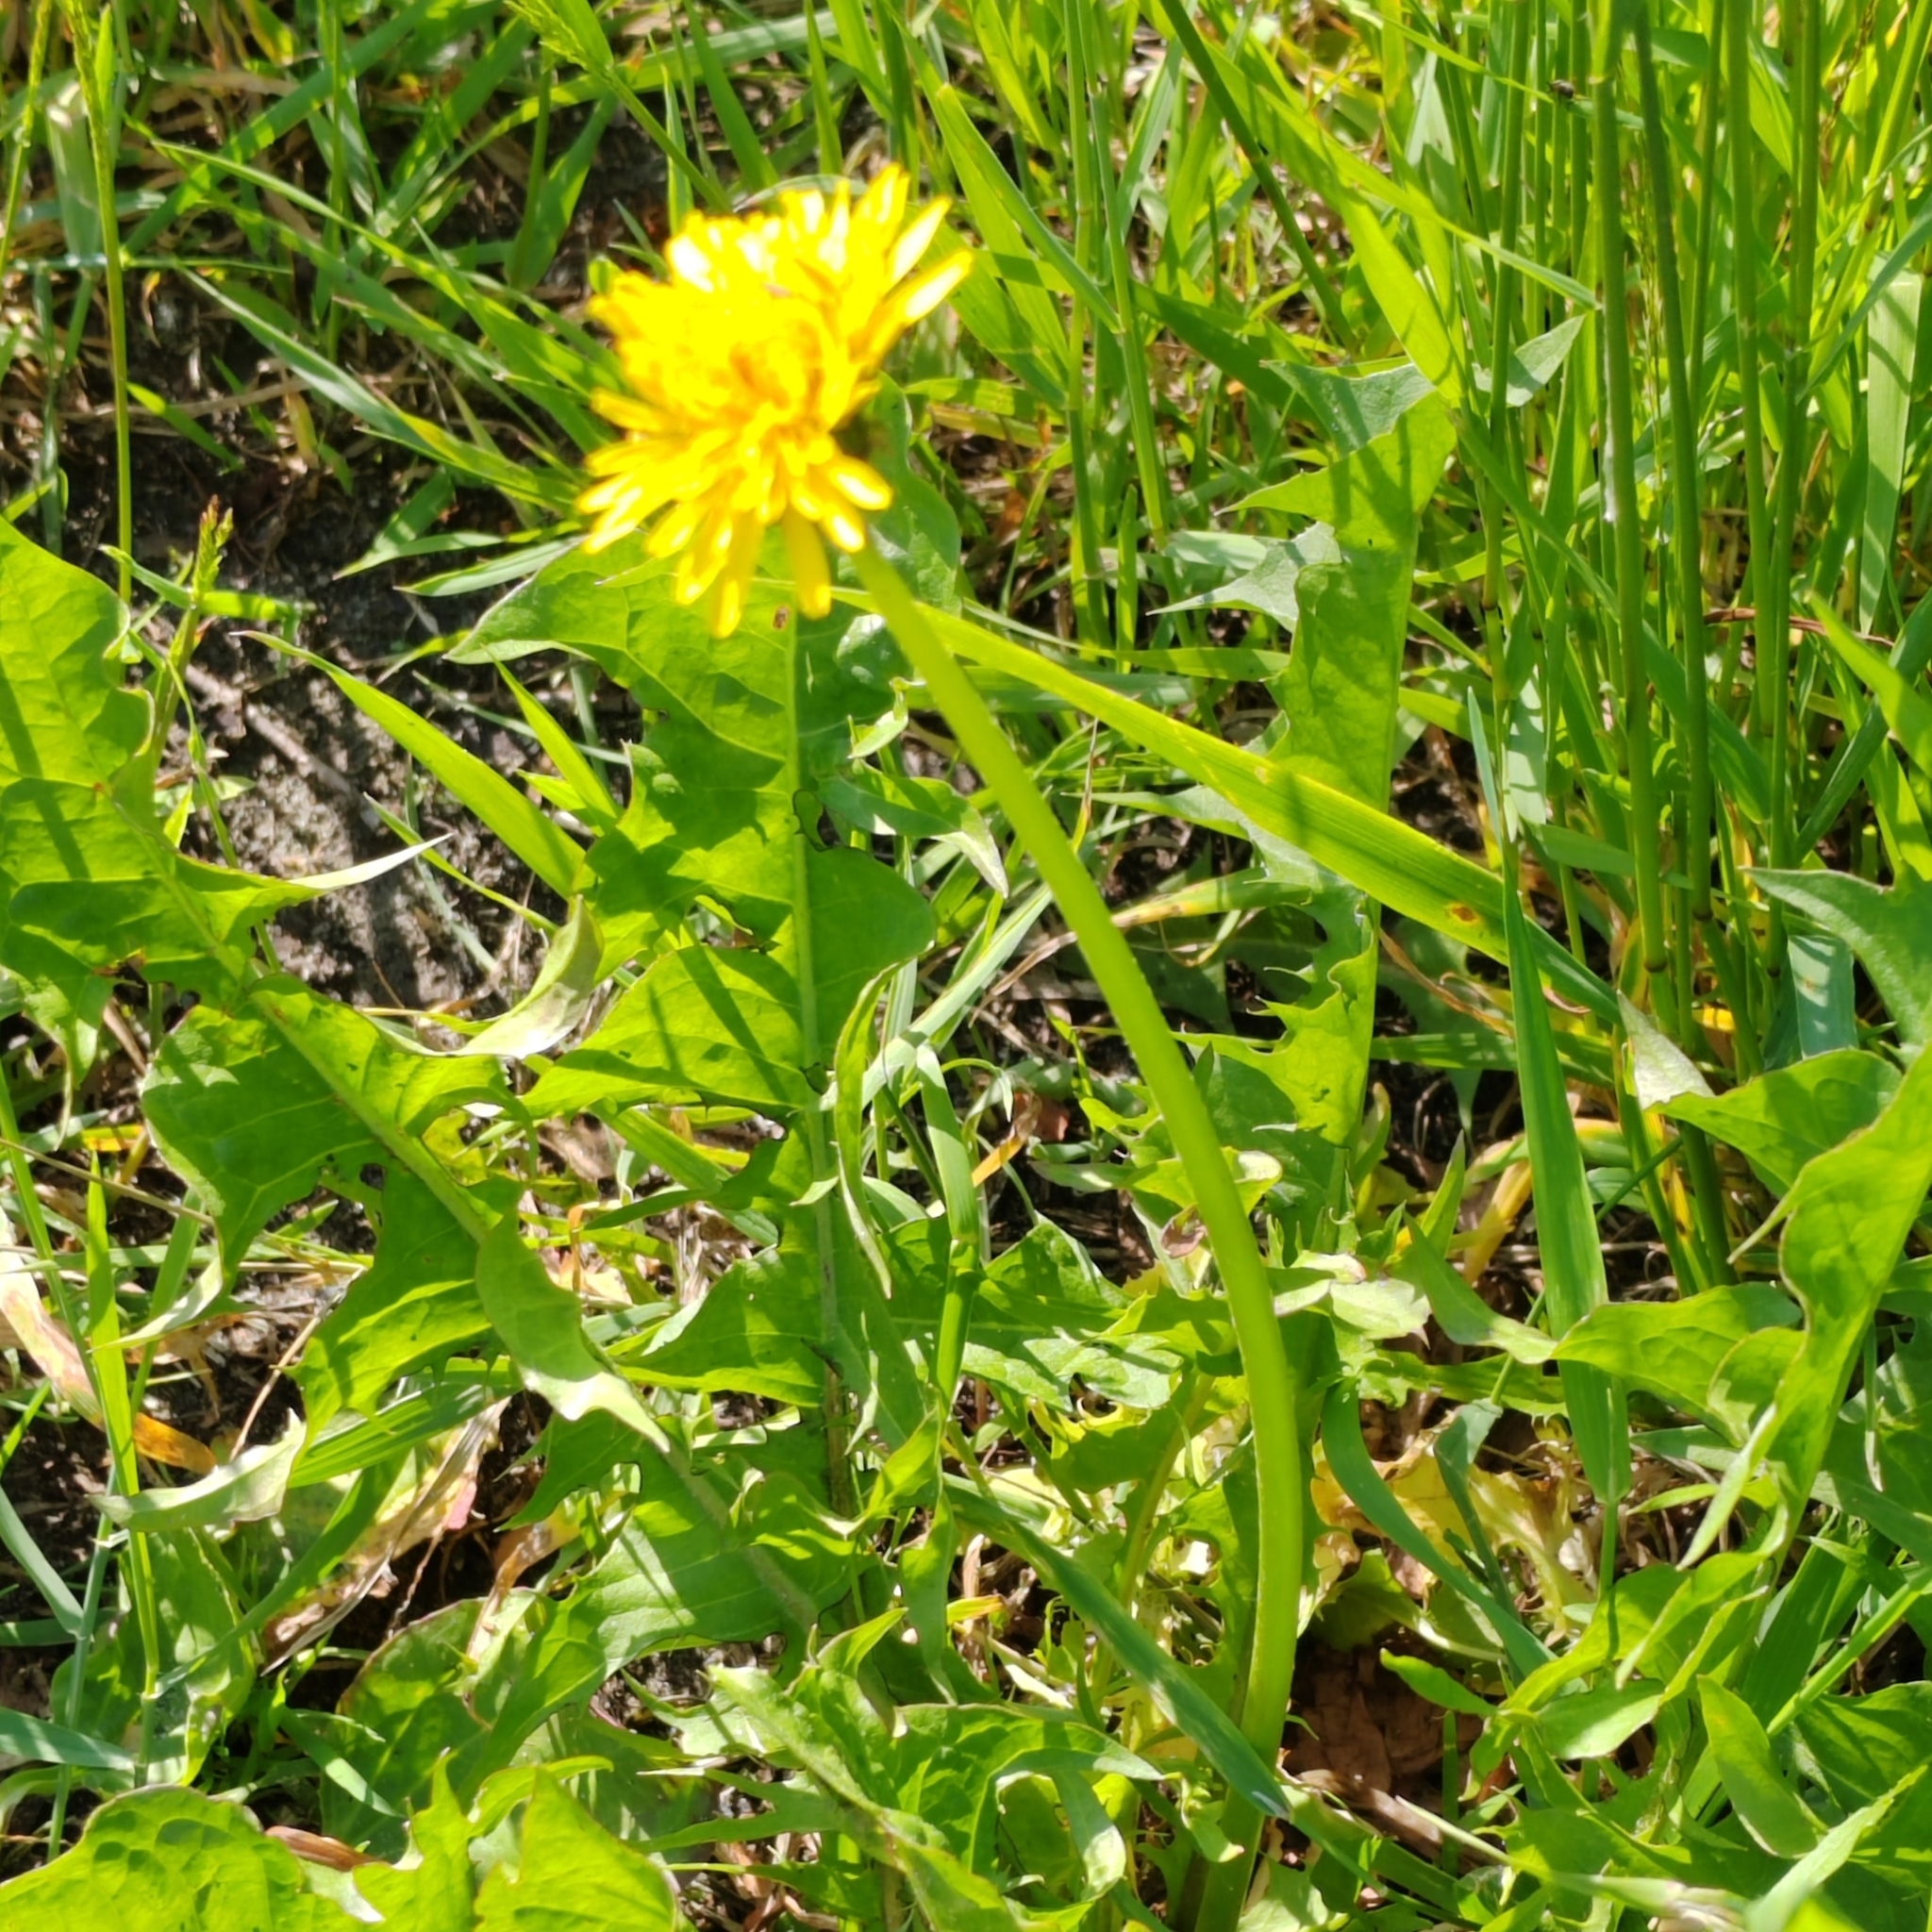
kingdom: Plantae
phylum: Tracheophyta
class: Magnoliopsida
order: Asterales
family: Asteraceae
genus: Taraxacum
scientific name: Taraxacum officinale
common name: Common dandelion
